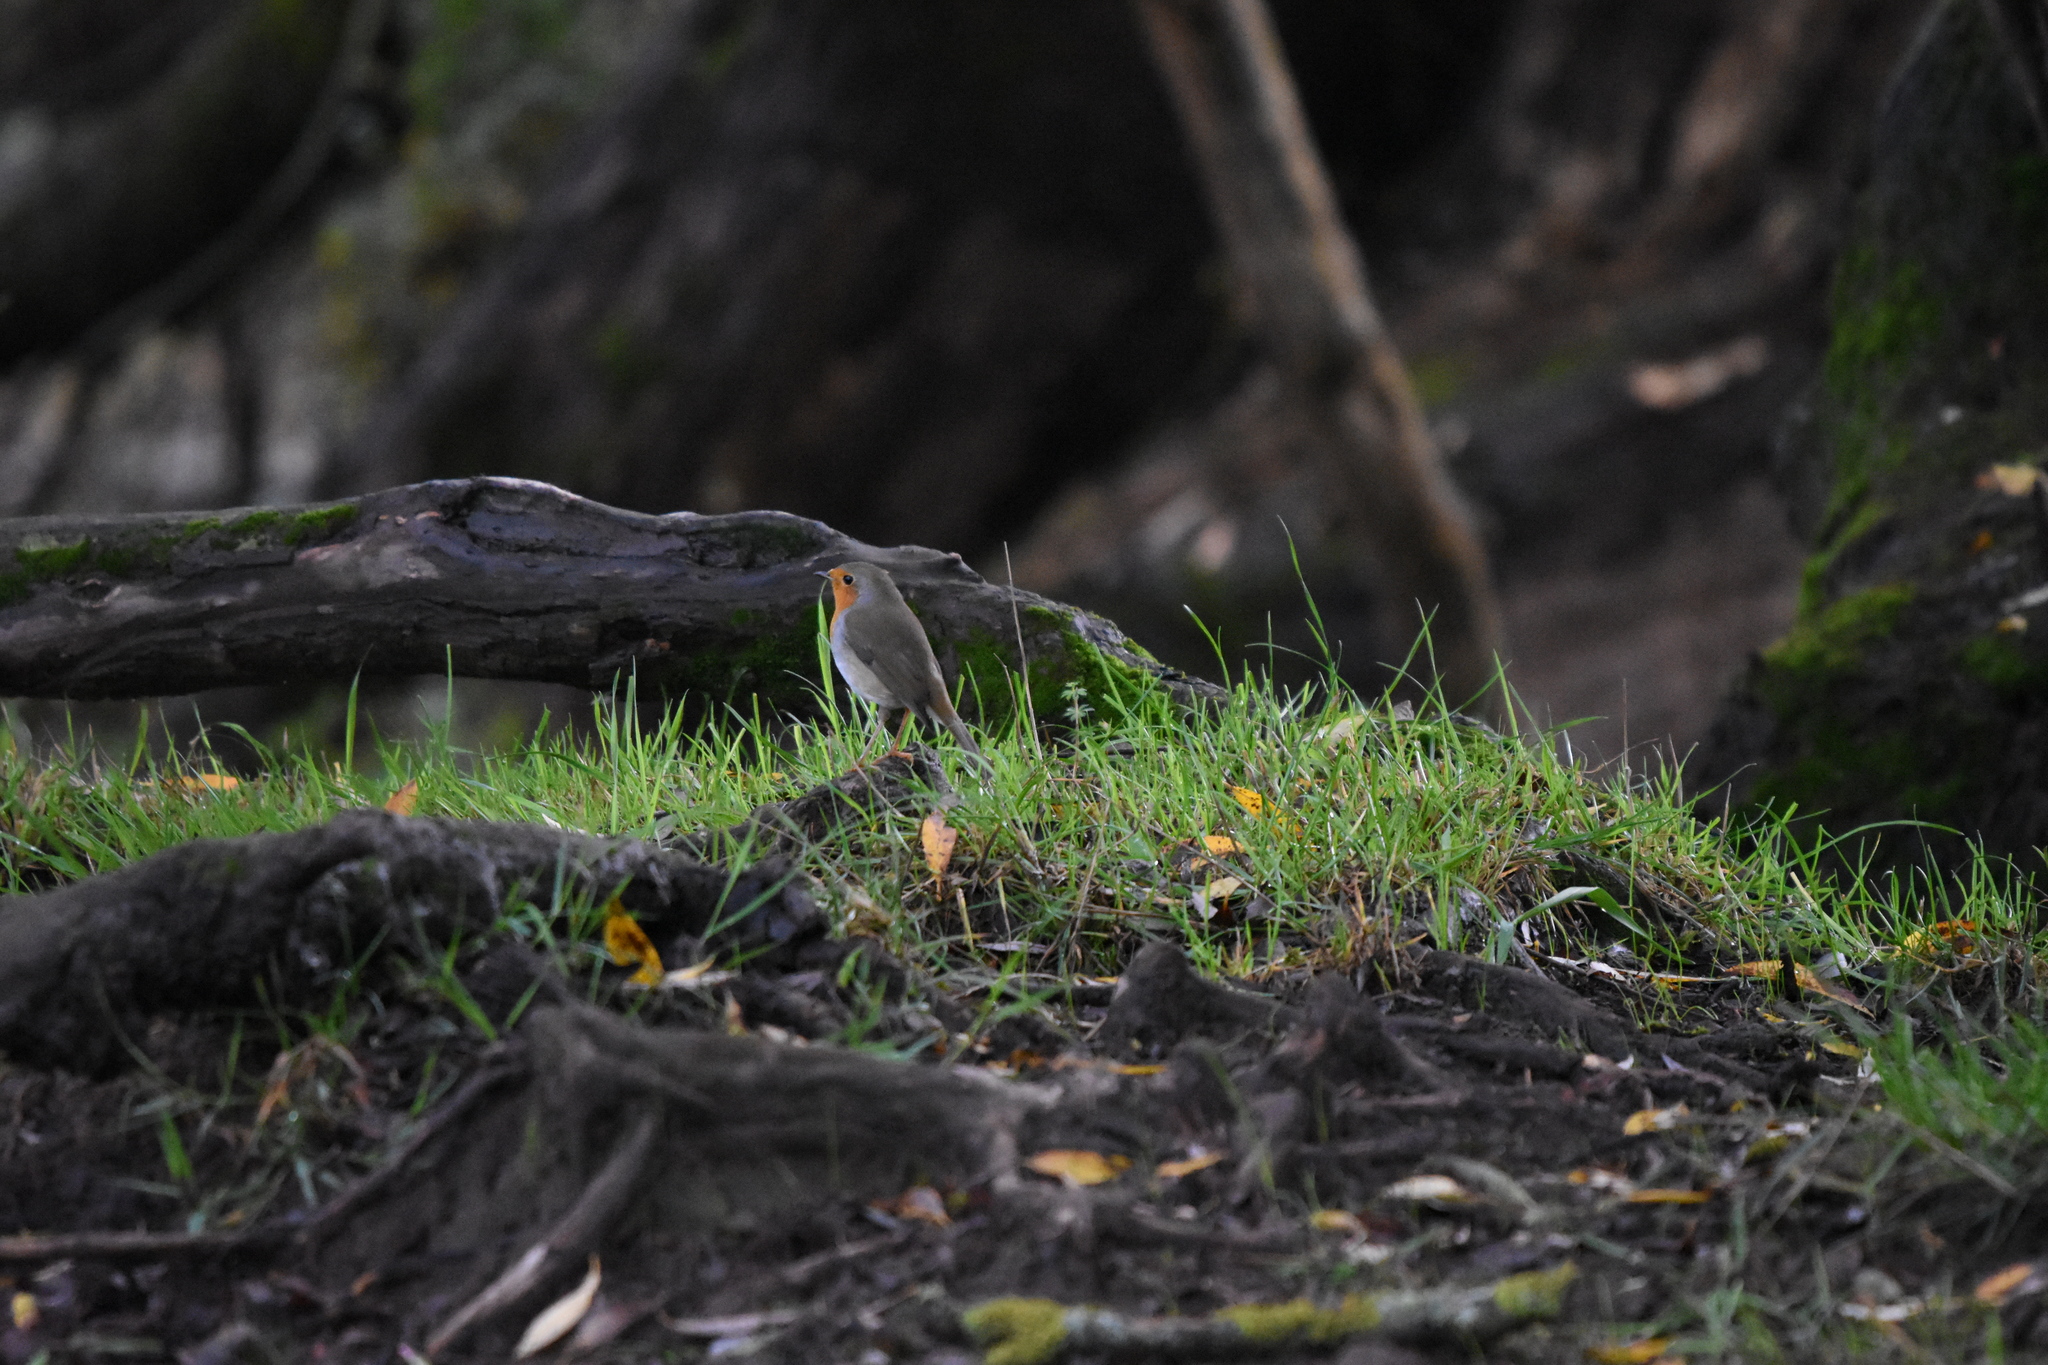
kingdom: Animalia
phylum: Chordata
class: Aves
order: Passeriformes
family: Muscicapidae
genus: Erithacus
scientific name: Erithacus rubecula
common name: European robin
